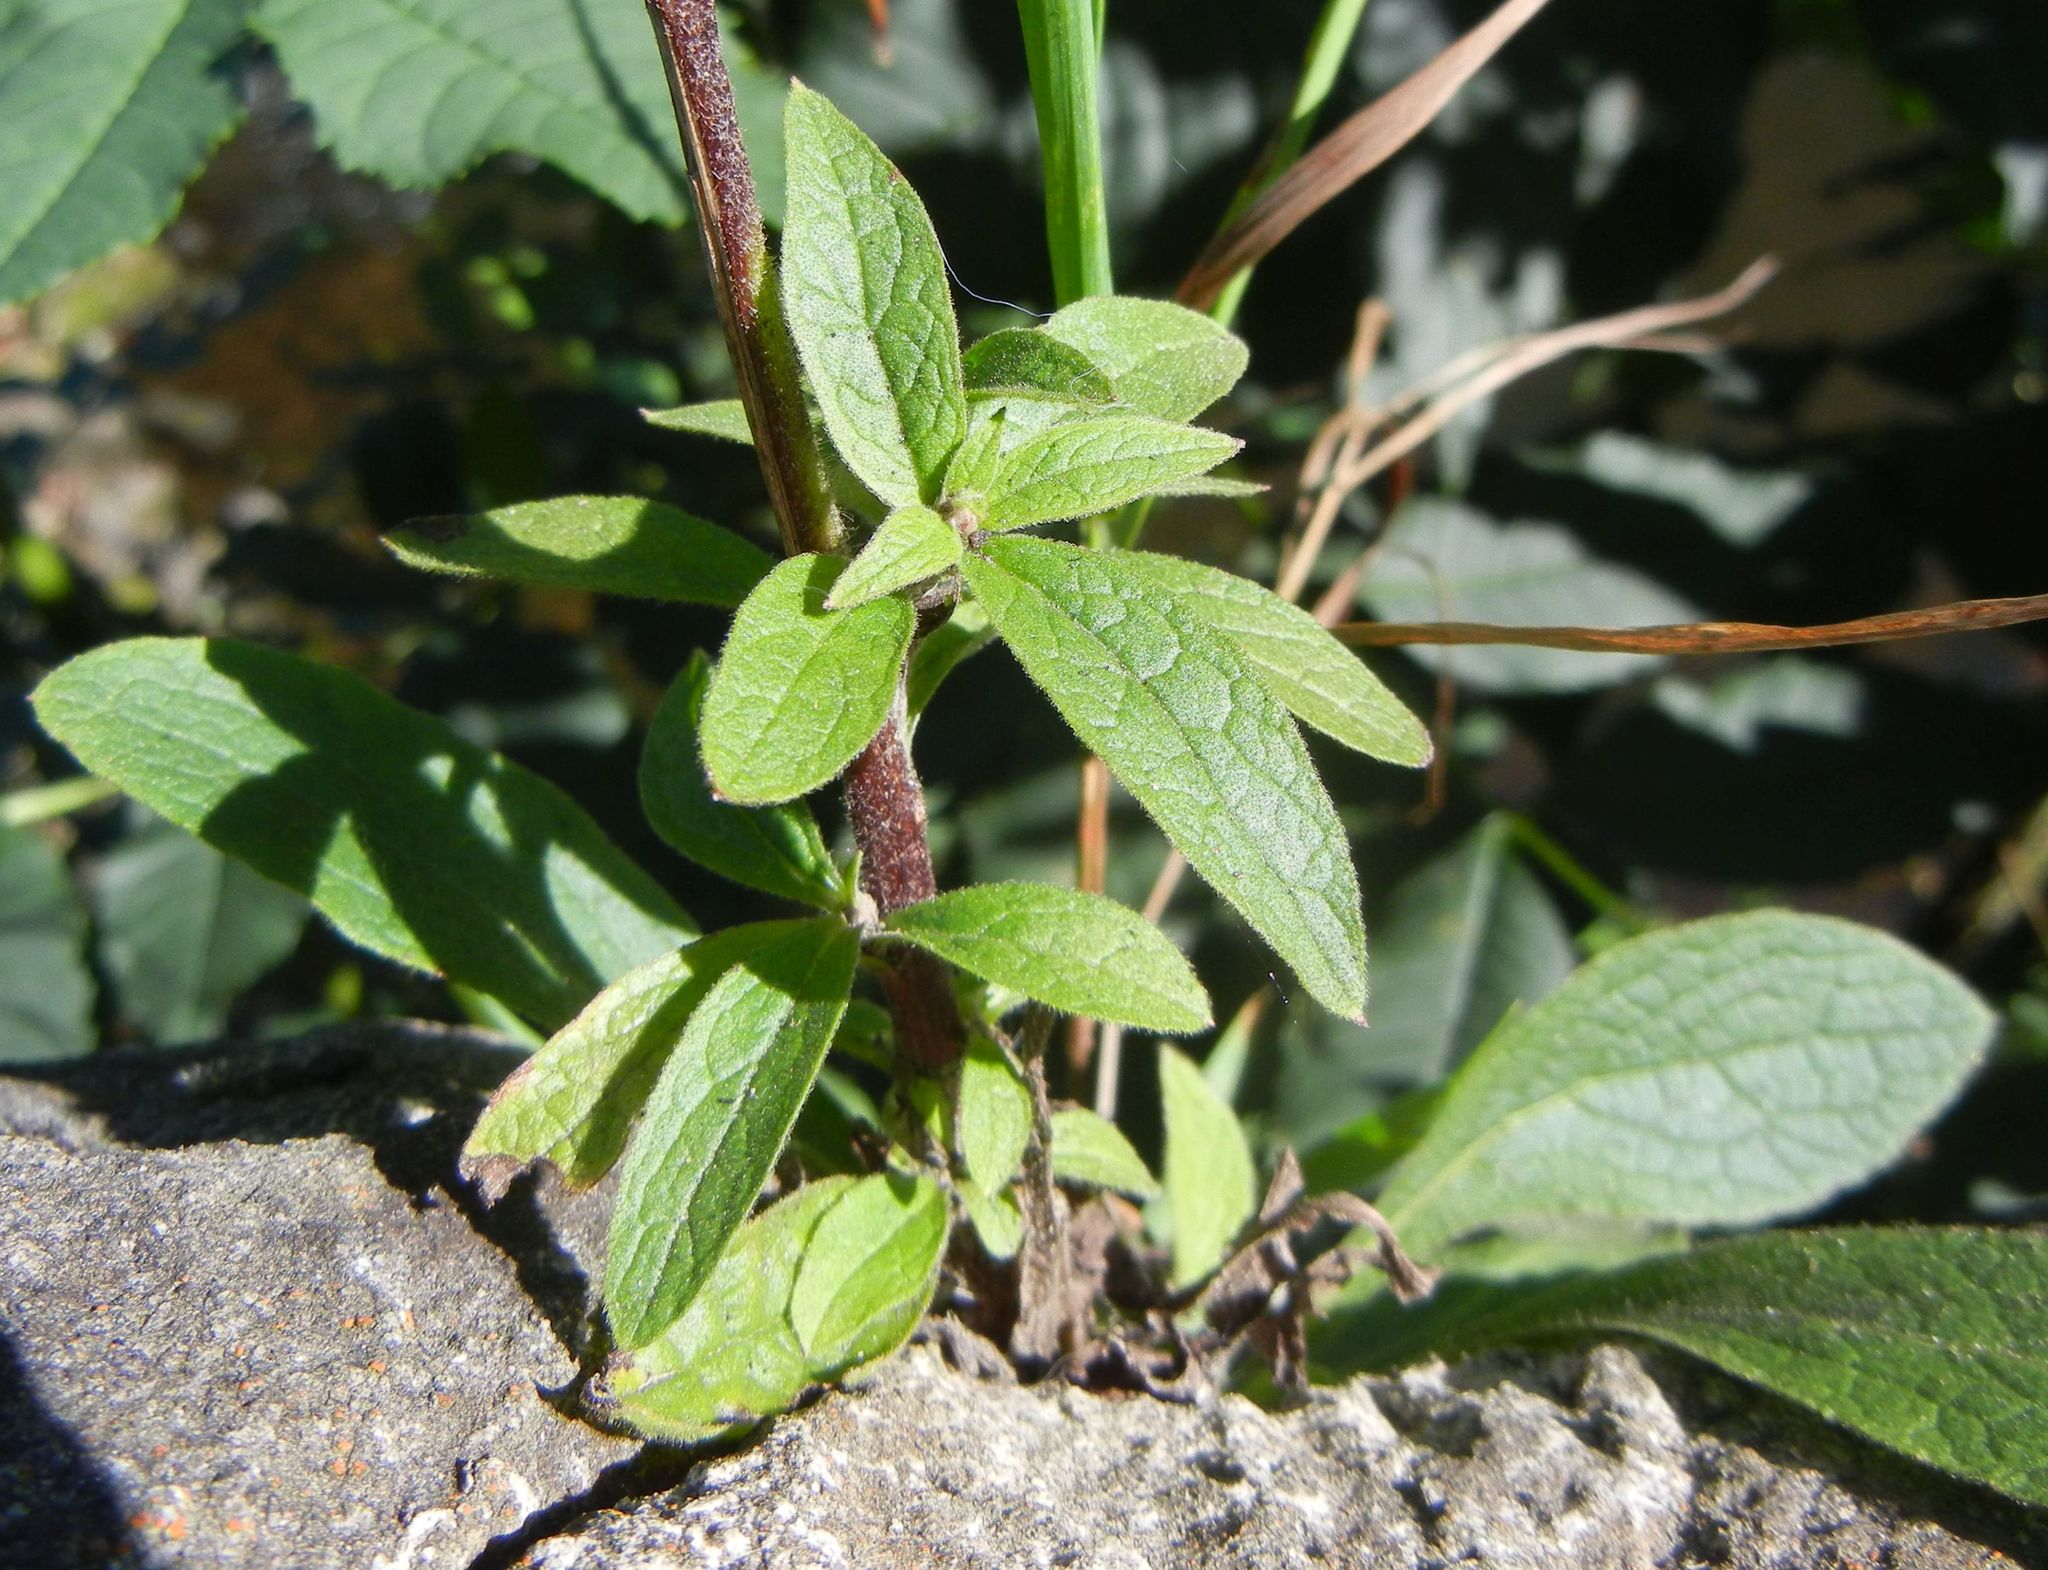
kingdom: Plantae
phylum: Tracheophyta
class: Magnoliopsida
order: Asterales
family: Asteraceae
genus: Pentanema
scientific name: Pentanema squarrosum
